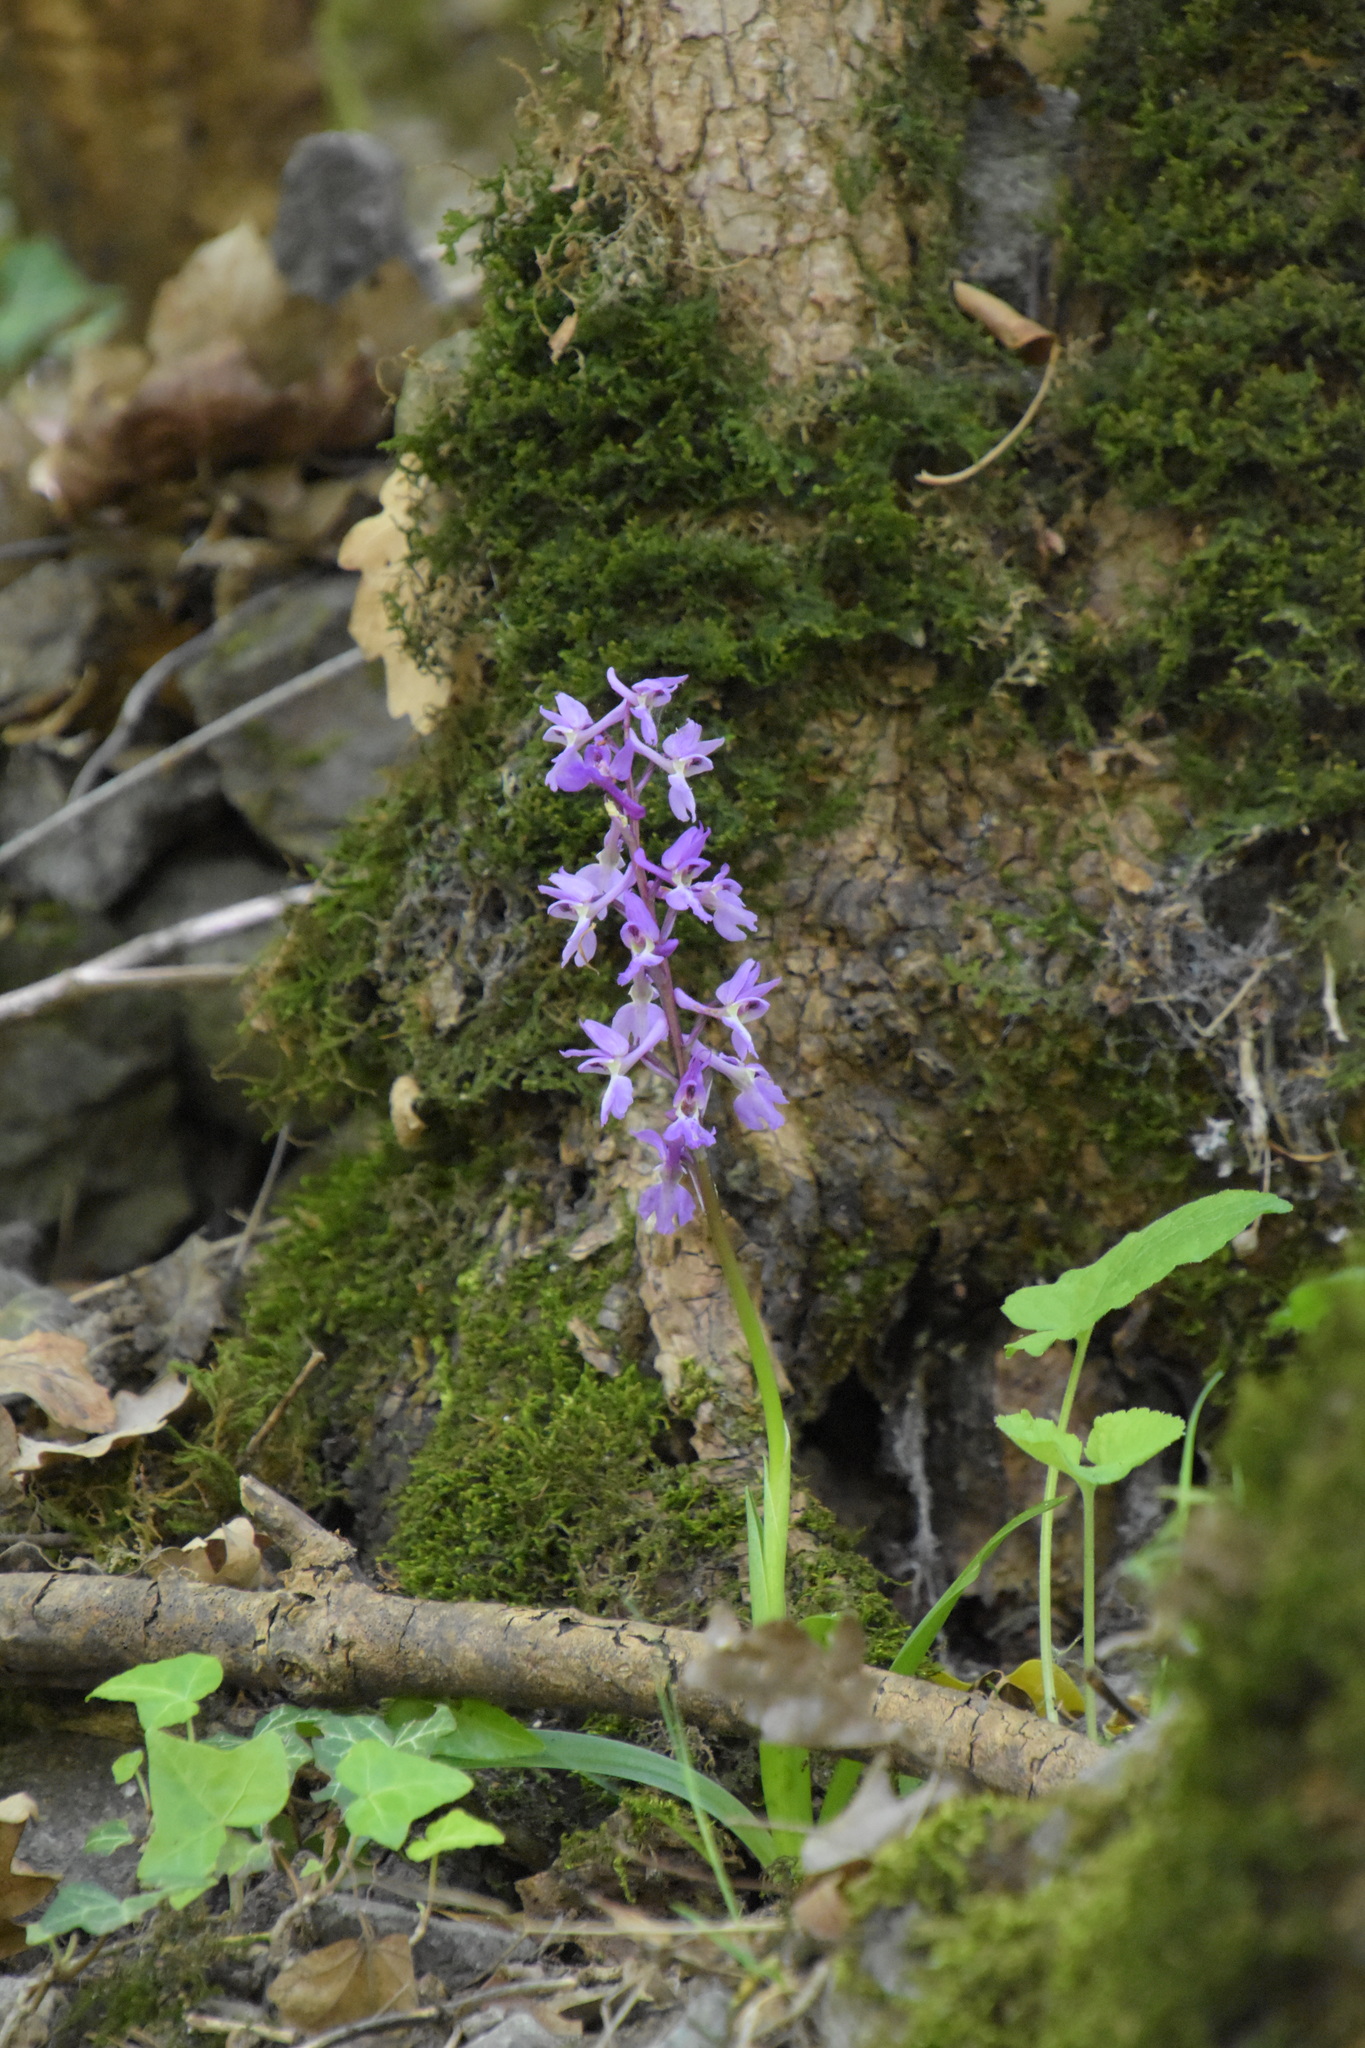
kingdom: Plantae
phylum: Tracheophyta
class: Liliopsida
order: Asparagales
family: Orchidaceae
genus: Orchis
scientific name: Orchis mascula
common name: Early-purple orchid
